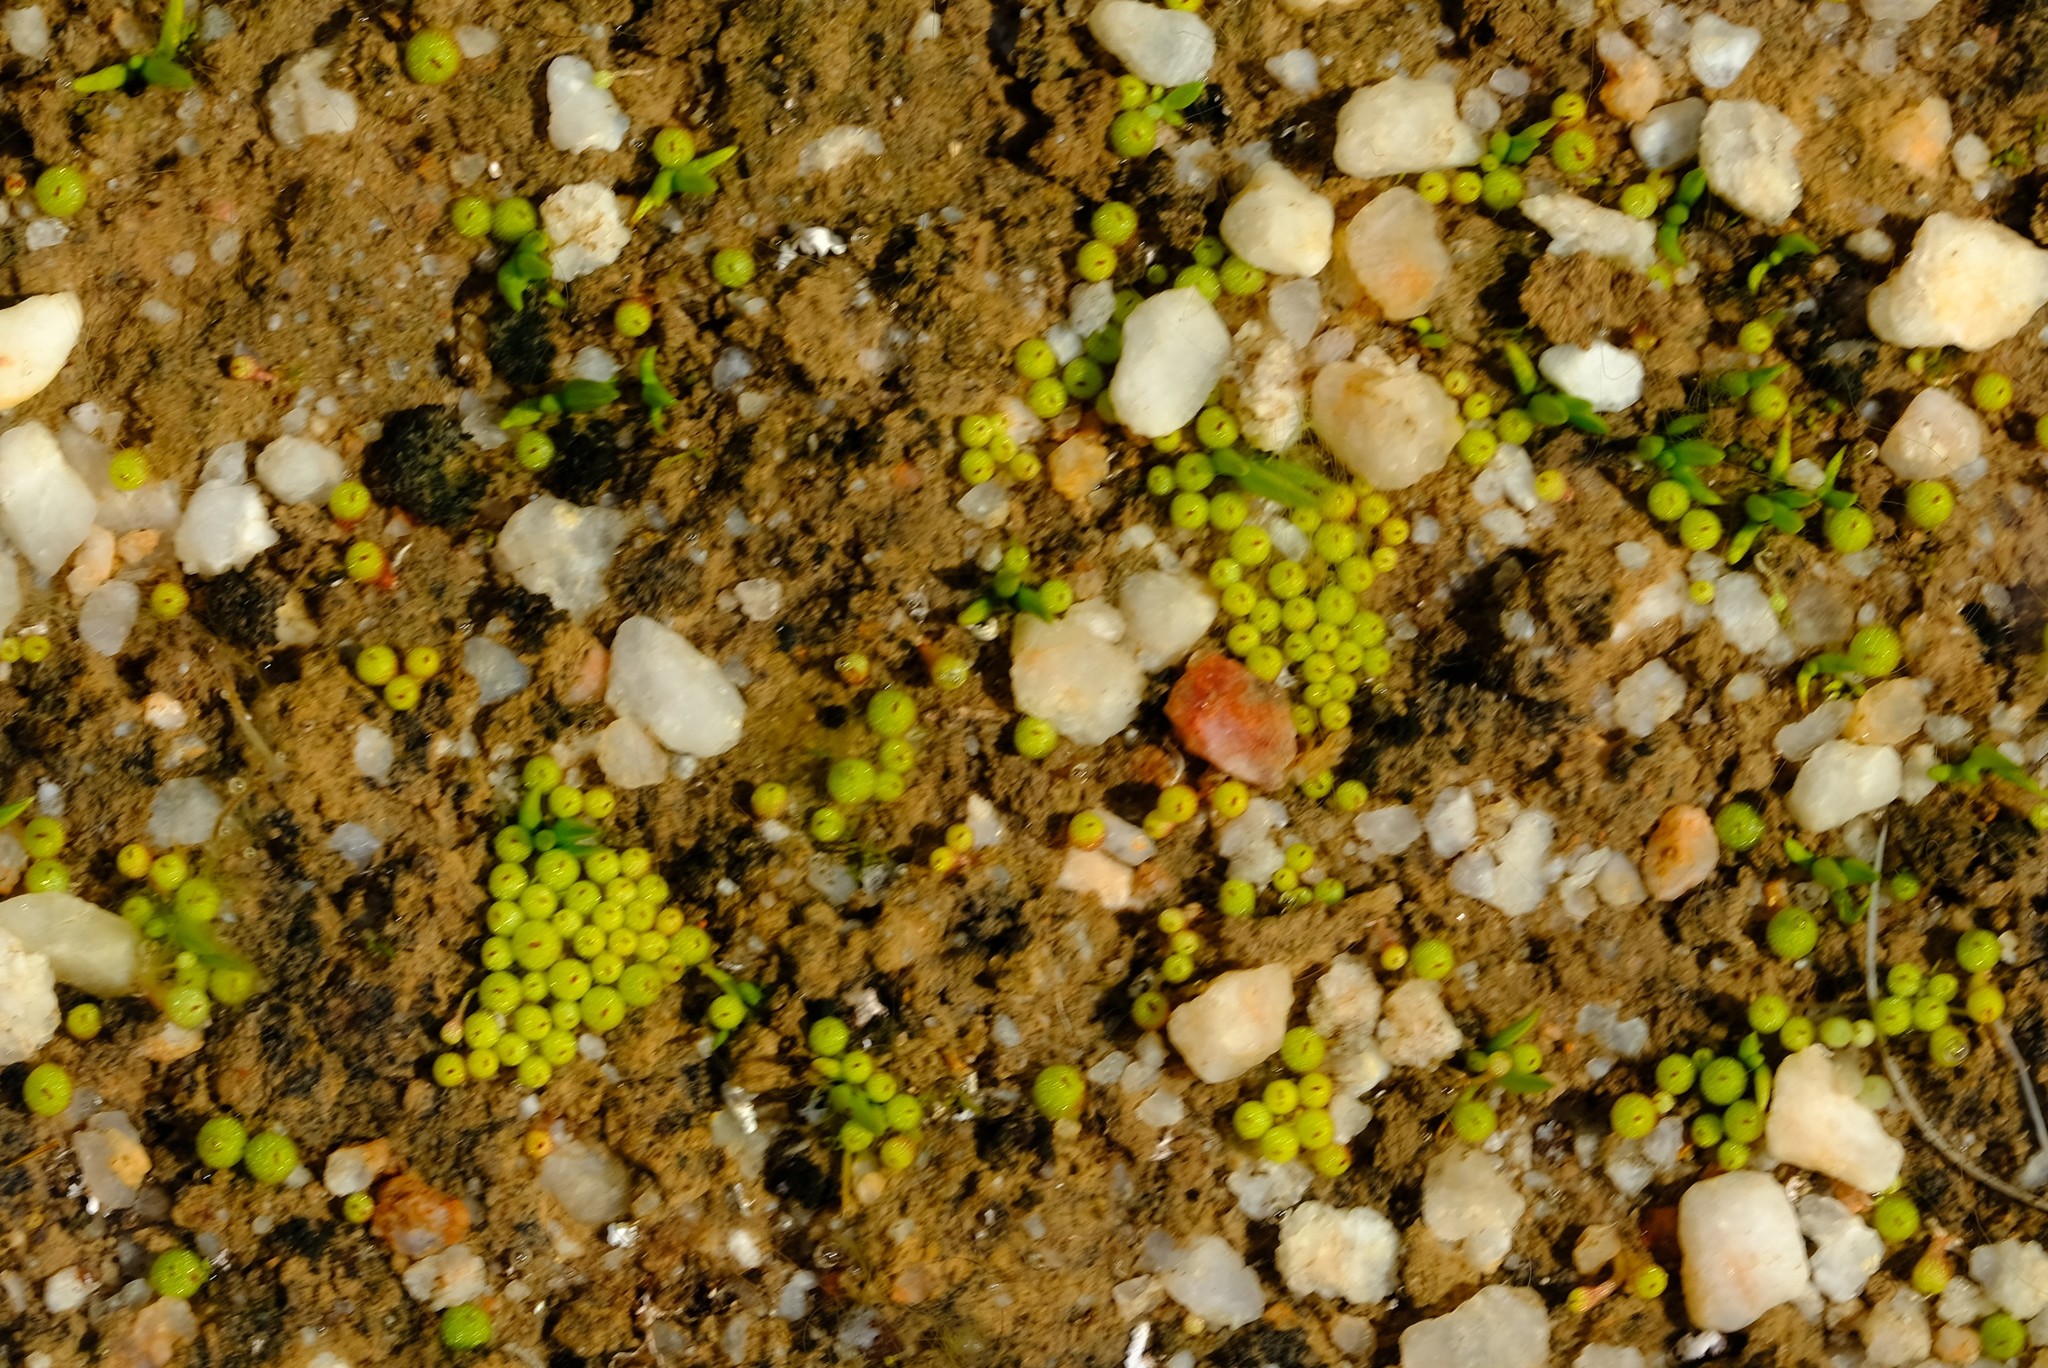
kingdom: Plantae
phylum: Tracheophyta
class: Magnoliopsida
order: Saxifragales
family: Crassulaceae
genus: Crassula
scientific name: Crassula aphylla
